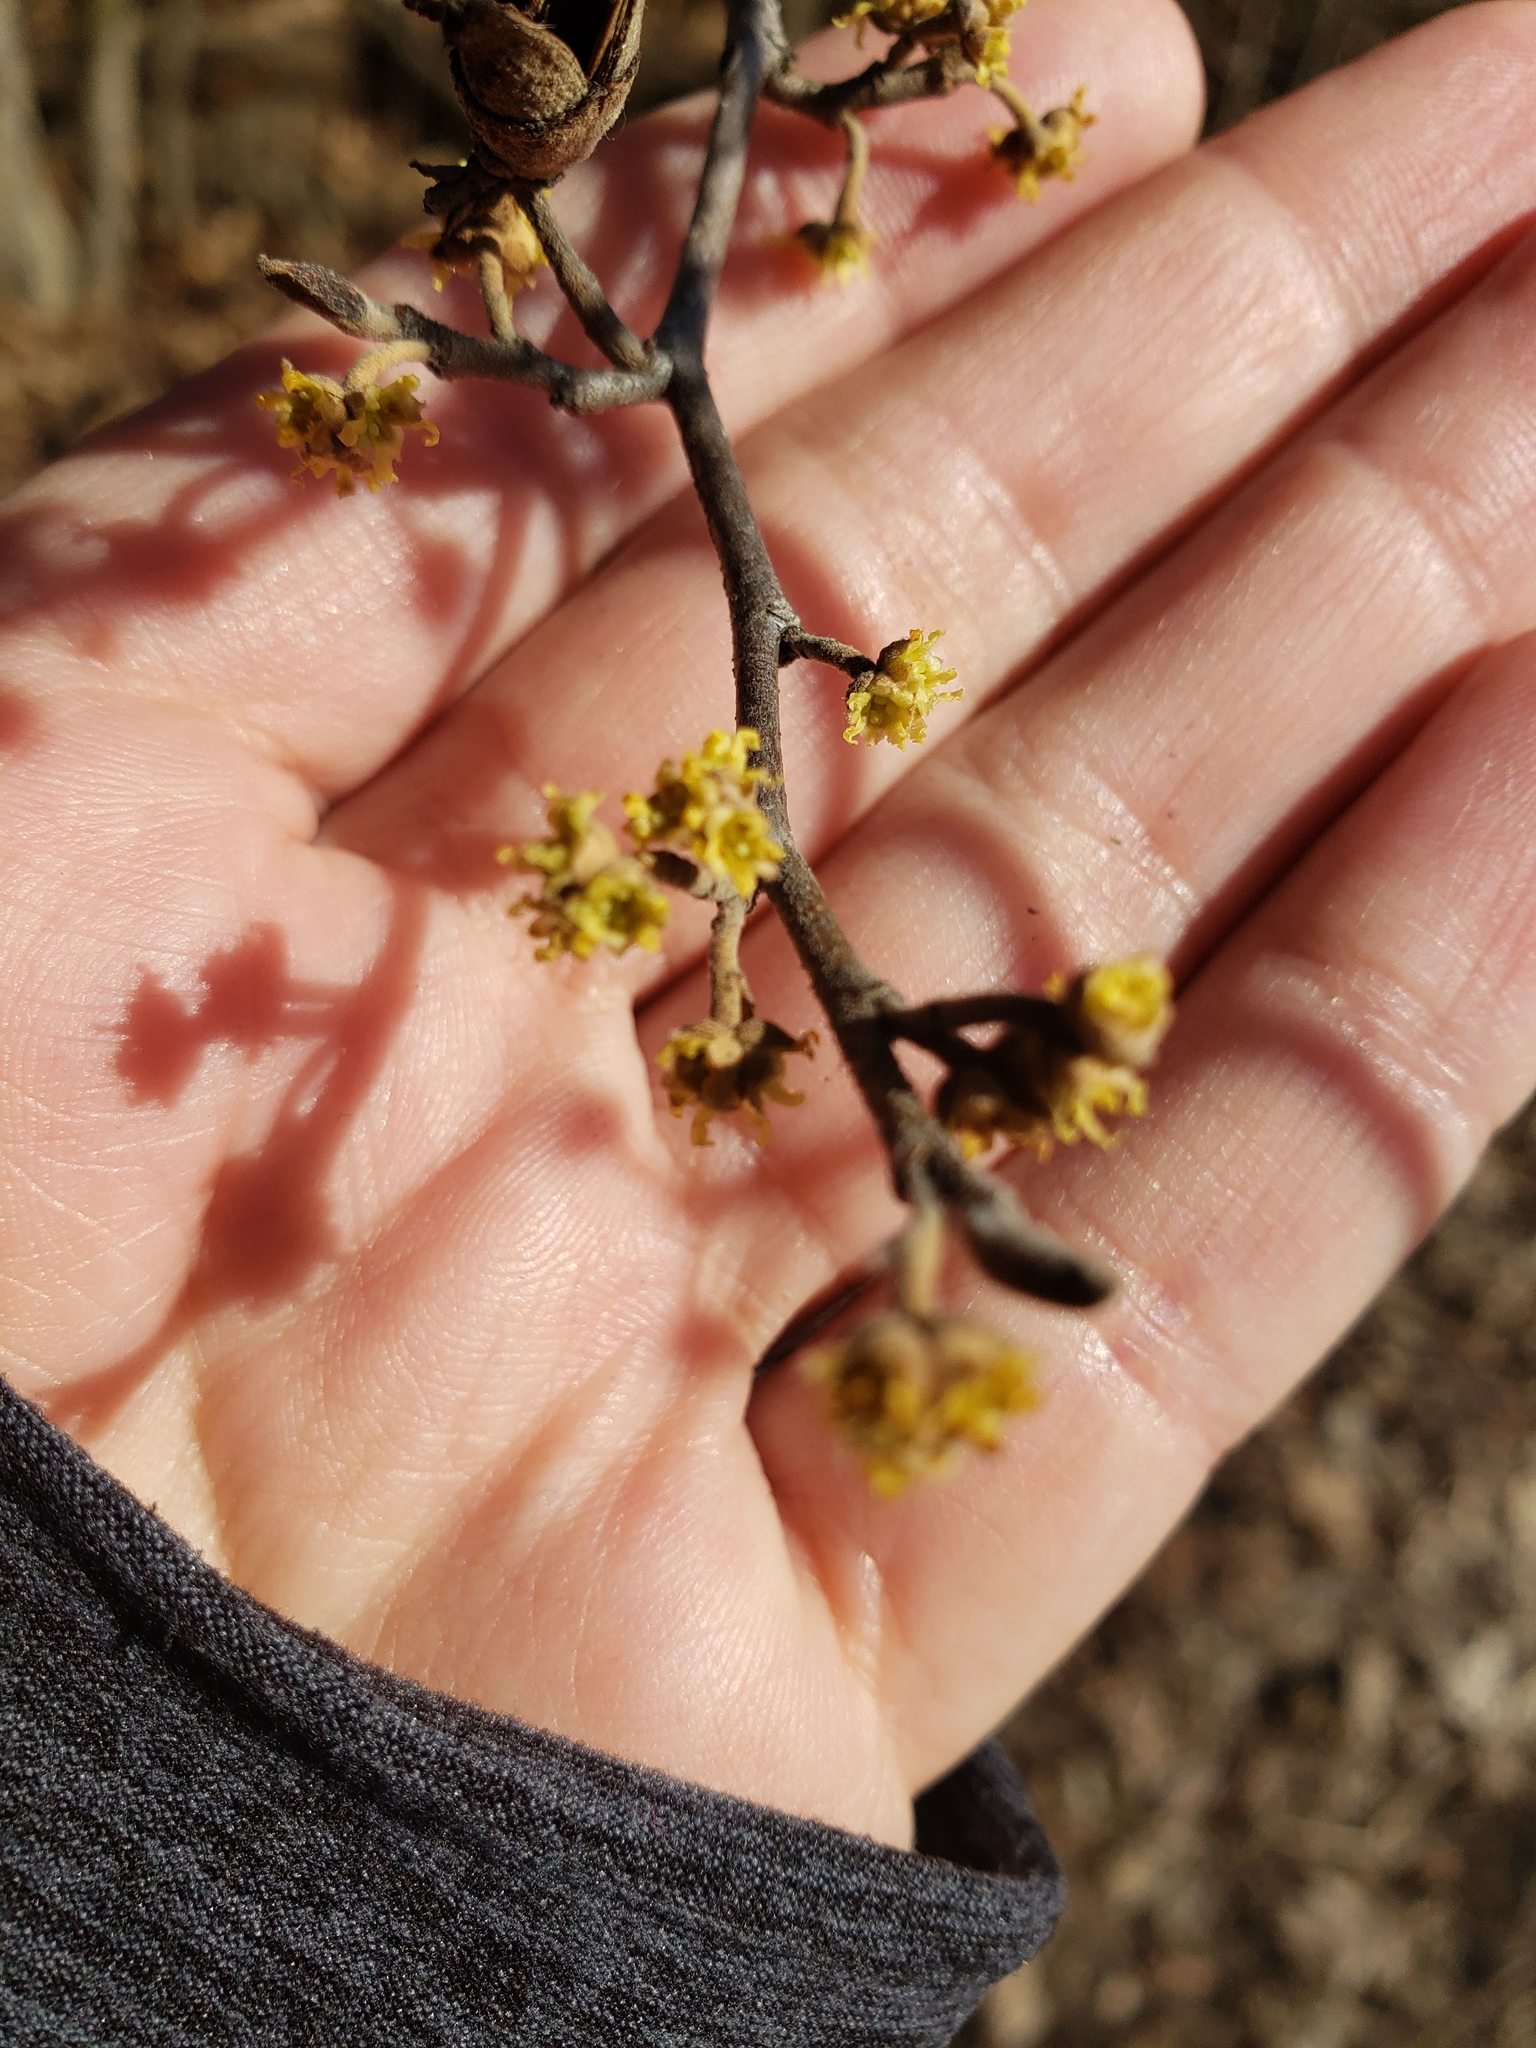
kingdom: Plantae
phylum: Tracheophyta
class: Magnoliopsida
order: Saxifragales
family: Hamamelidaceae
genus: Hamamelis
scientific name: Hamamelis virginiana
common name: Witch-hazel
